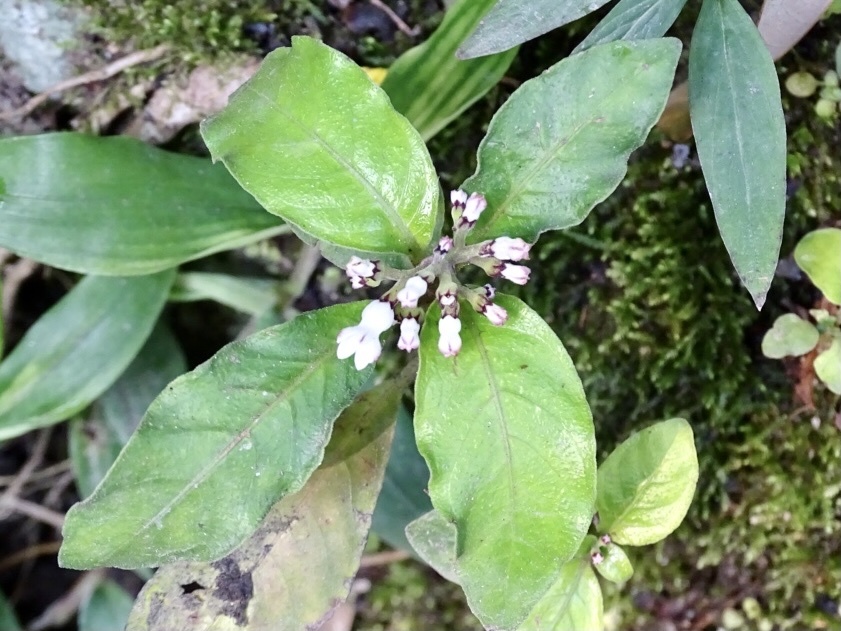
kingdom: Plantae
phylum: Tracheophyta
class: Magnoliopsida
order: Gentianales
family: Rubiaceae
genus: Ophiorrhiza
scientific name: Ophiorrhiza pumila
